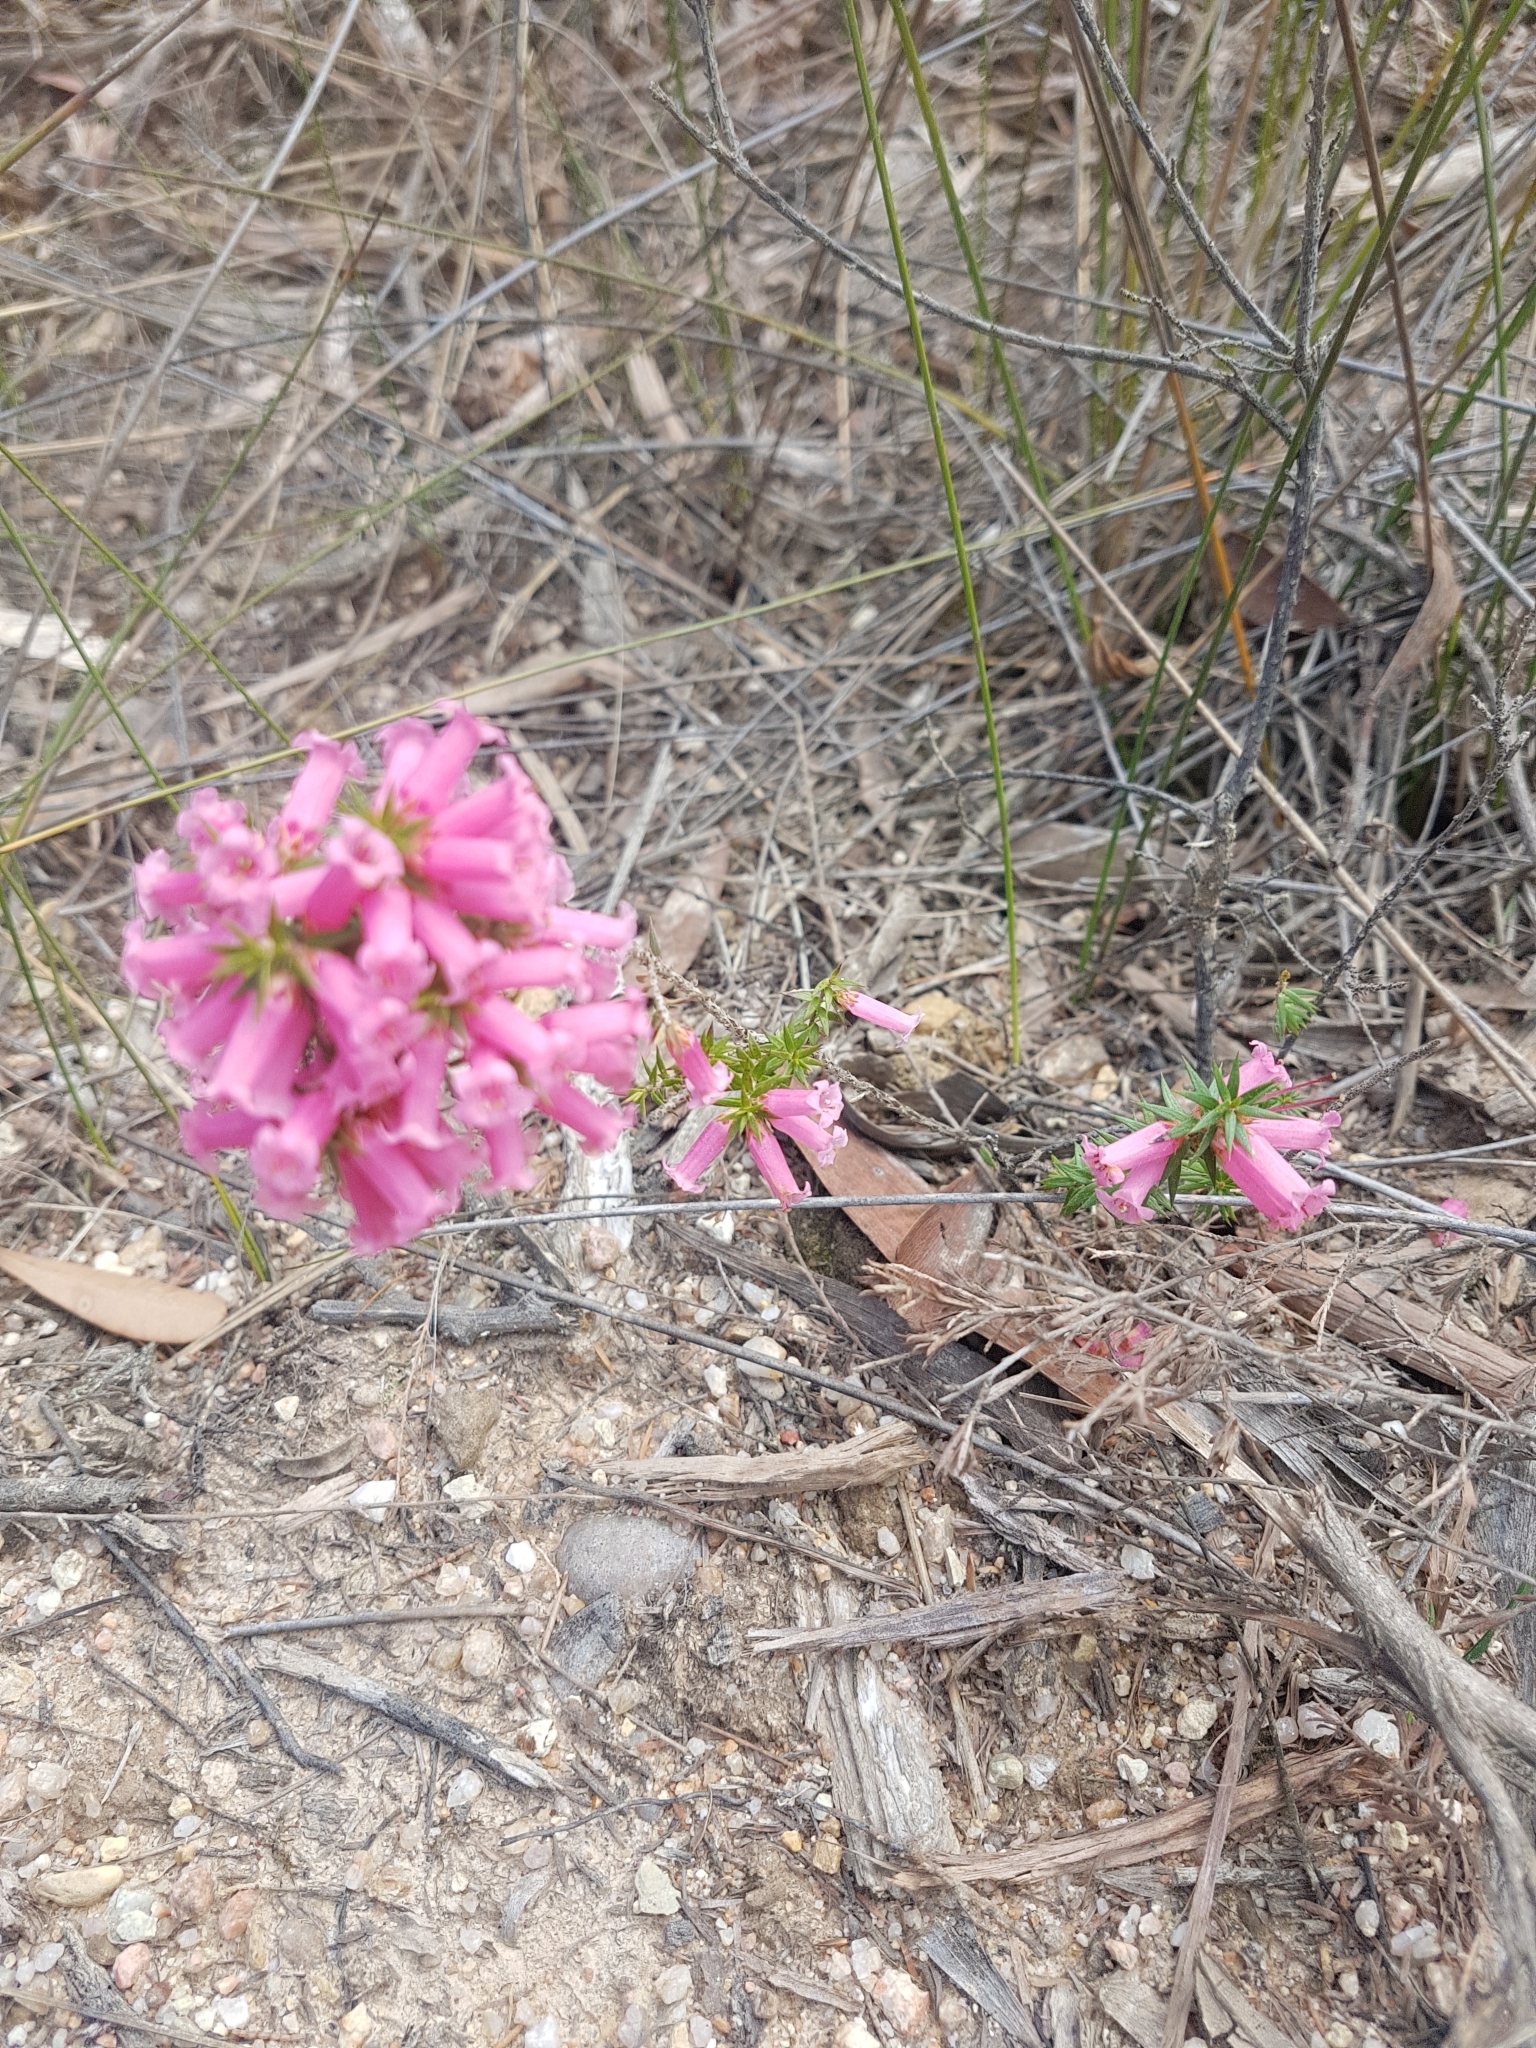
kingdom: Plantae
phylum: Tracheophyta
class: Magnoliopsida
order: Ericales
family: Ericaceae
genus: Epacris
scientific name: Epacris impressa
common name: Common-heath
